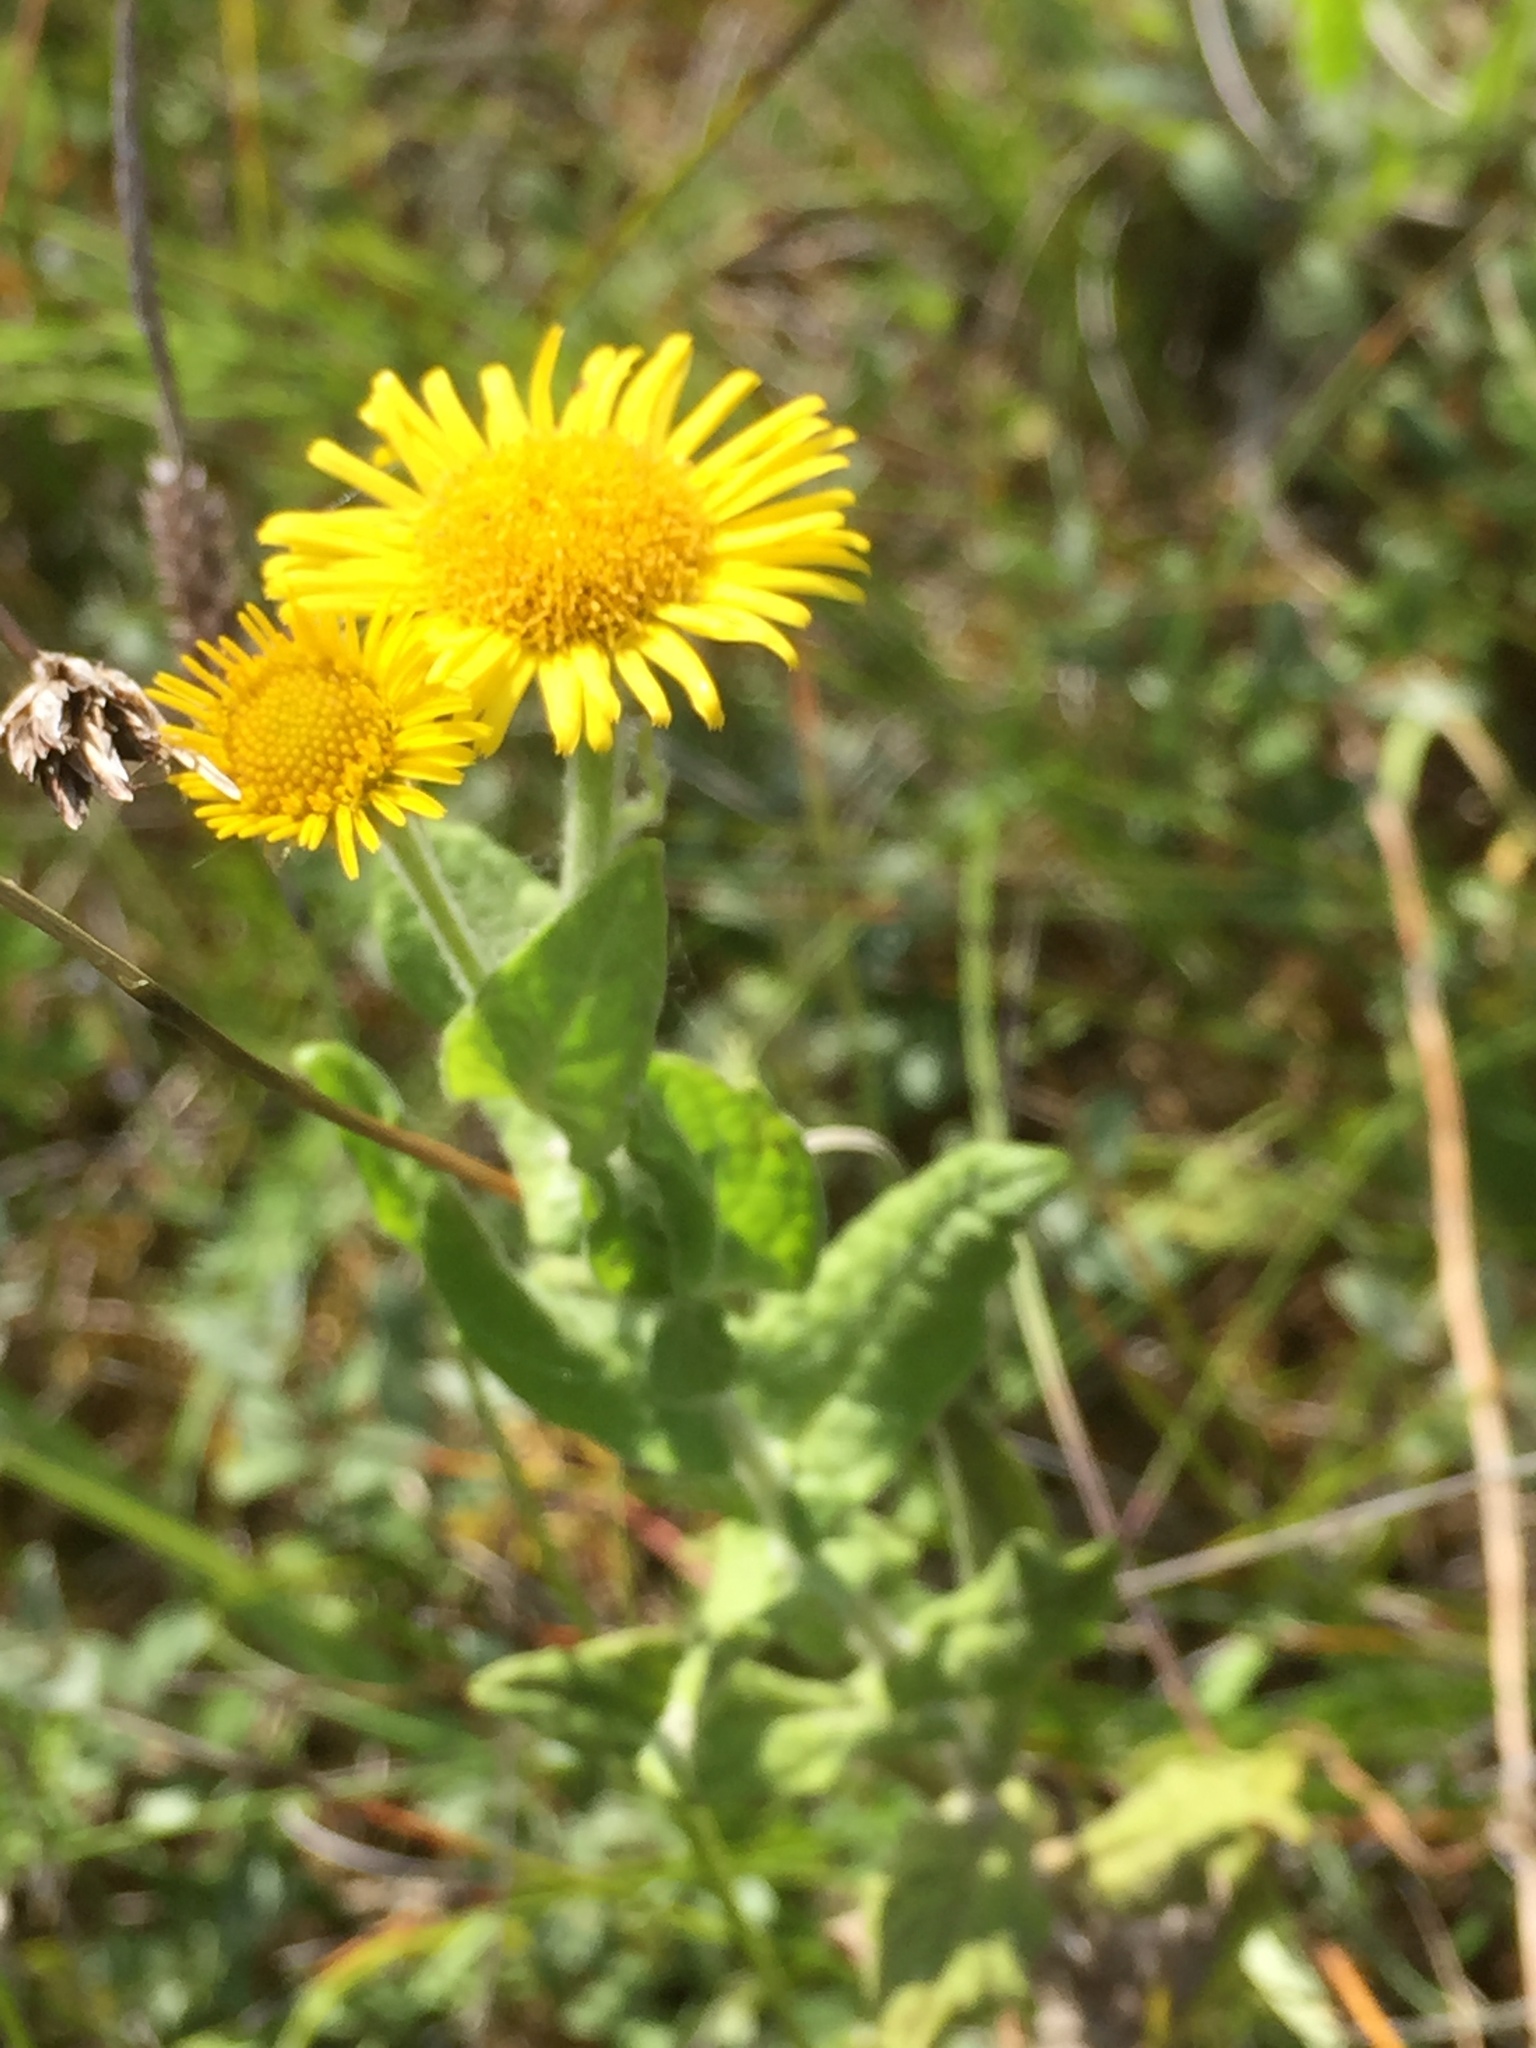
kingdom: Plantae
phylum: Tracheophyta
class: Magnoliopsida
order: Asterales
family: Asteraceae
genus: Pulicaria
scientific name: Pulicaria dysenterica
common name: Common fleabane
